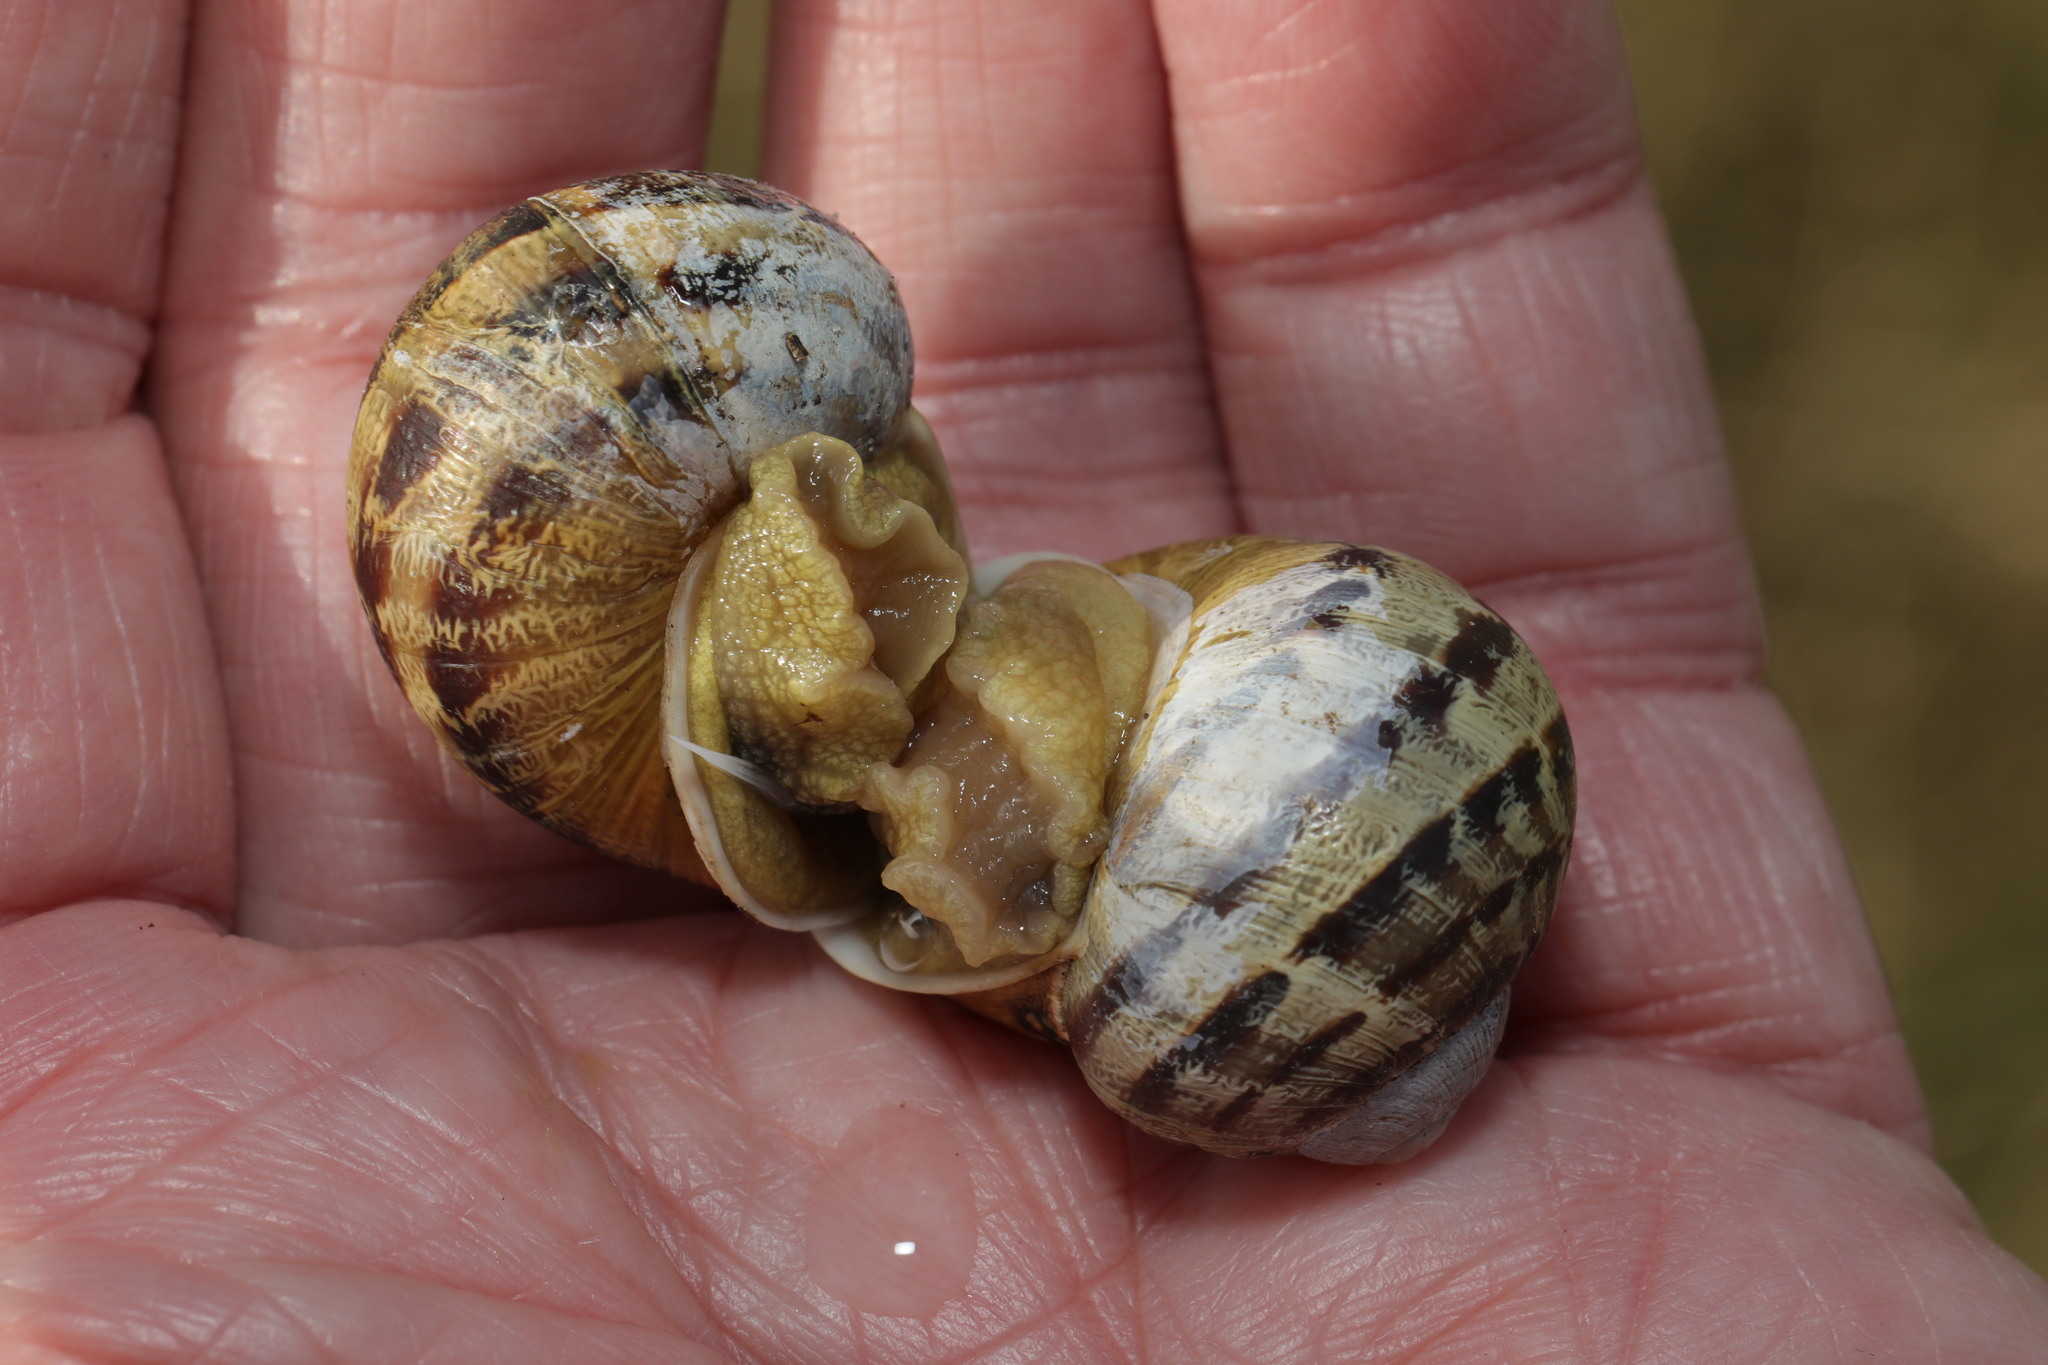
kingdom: Animalia
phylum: Mollusca
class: Gastropoda
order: Stylommatophora
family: Helicidae
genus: Cornu
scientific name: Cornu aspersum
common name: Brown garden snail
